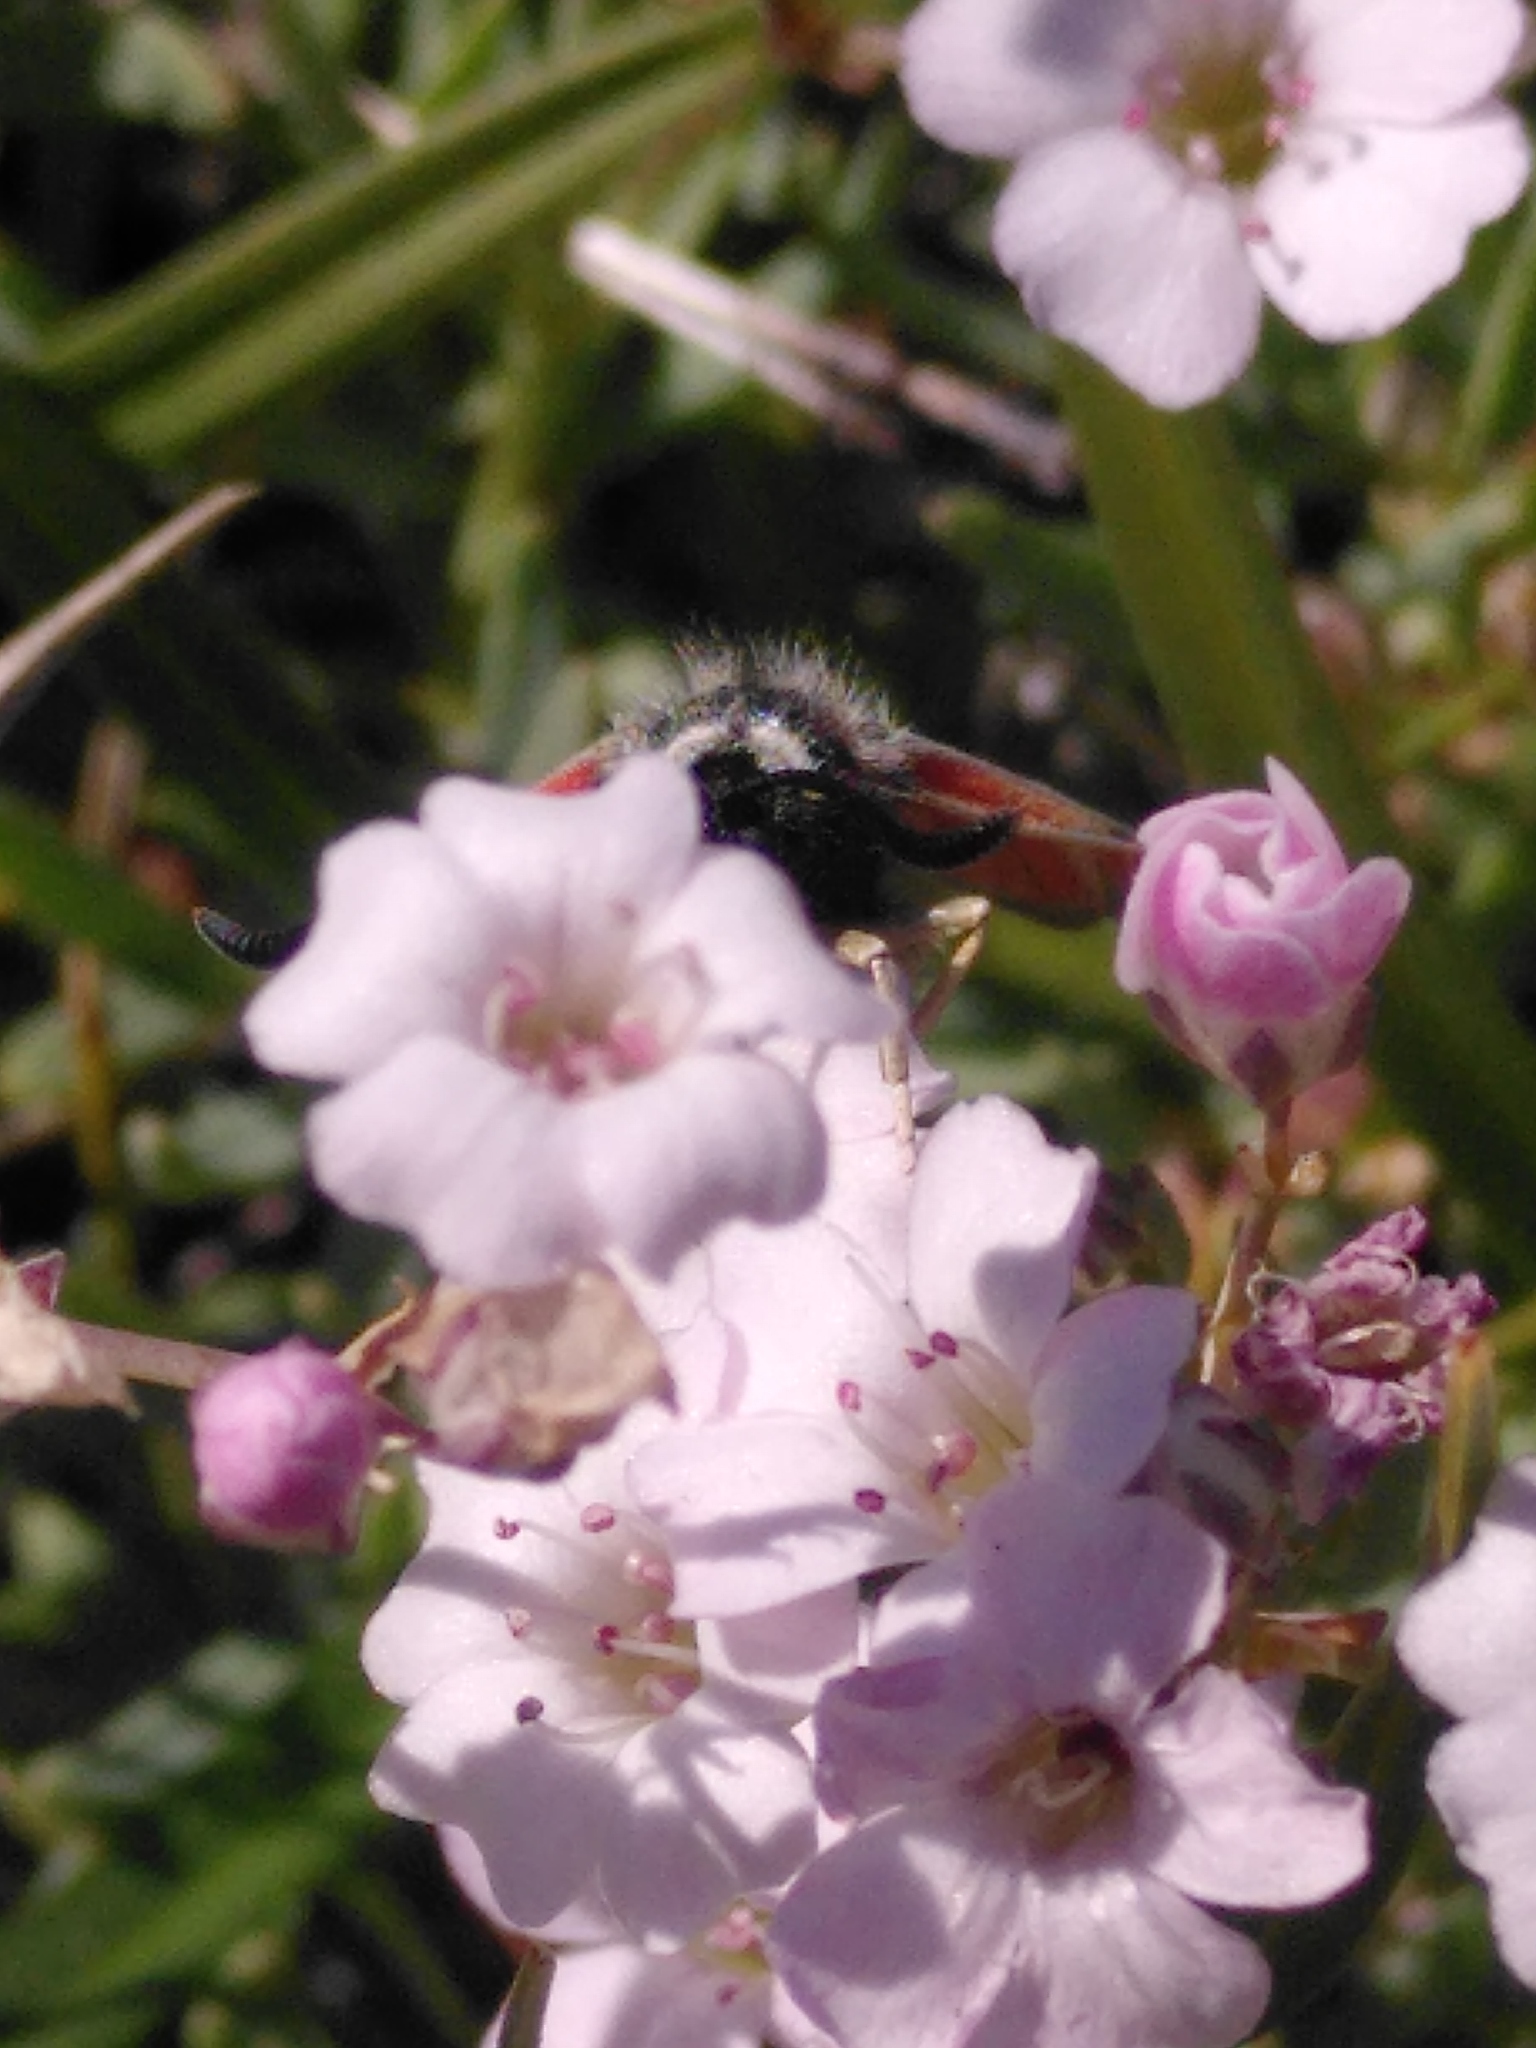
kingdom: Animalia
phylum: Arthropoda
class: Insecta
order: Lepidoptera
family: Zygaenidae
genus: Zygaena
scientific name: Zygaena exulans
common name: Scotch burnet
